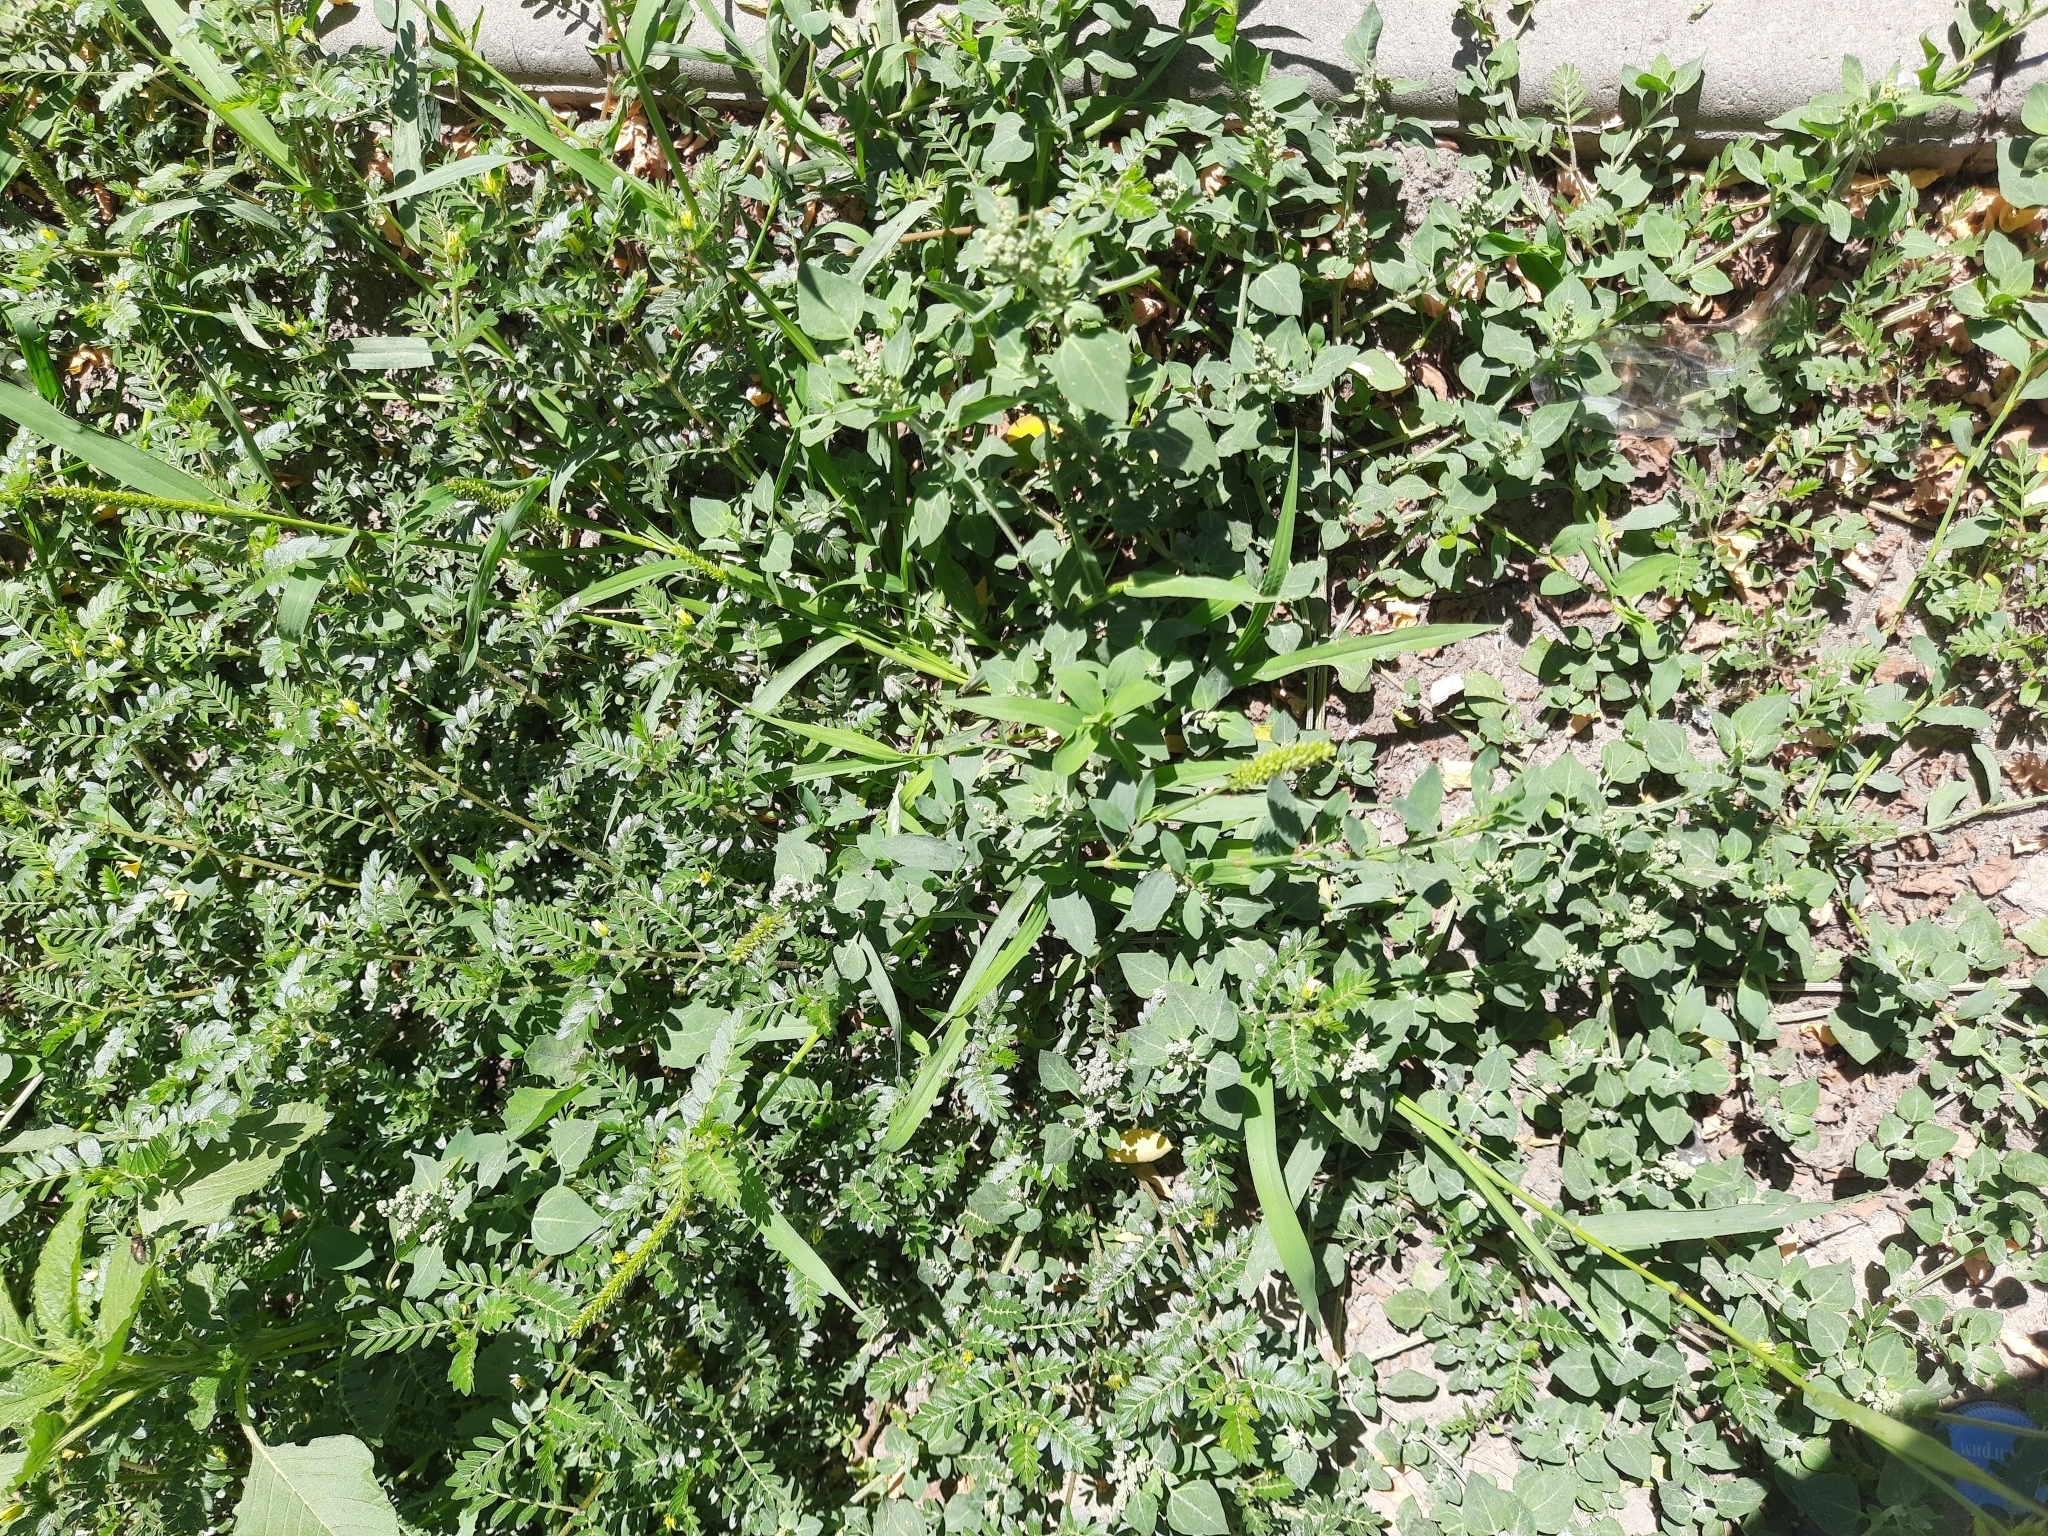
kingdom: Plantae
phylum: Tracheophyta
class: Magnoliopsida
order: Zygophyllales
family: Zygophyllaceae
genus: Tribulus
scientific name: Tribulus terrestris
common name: Puncturevine
